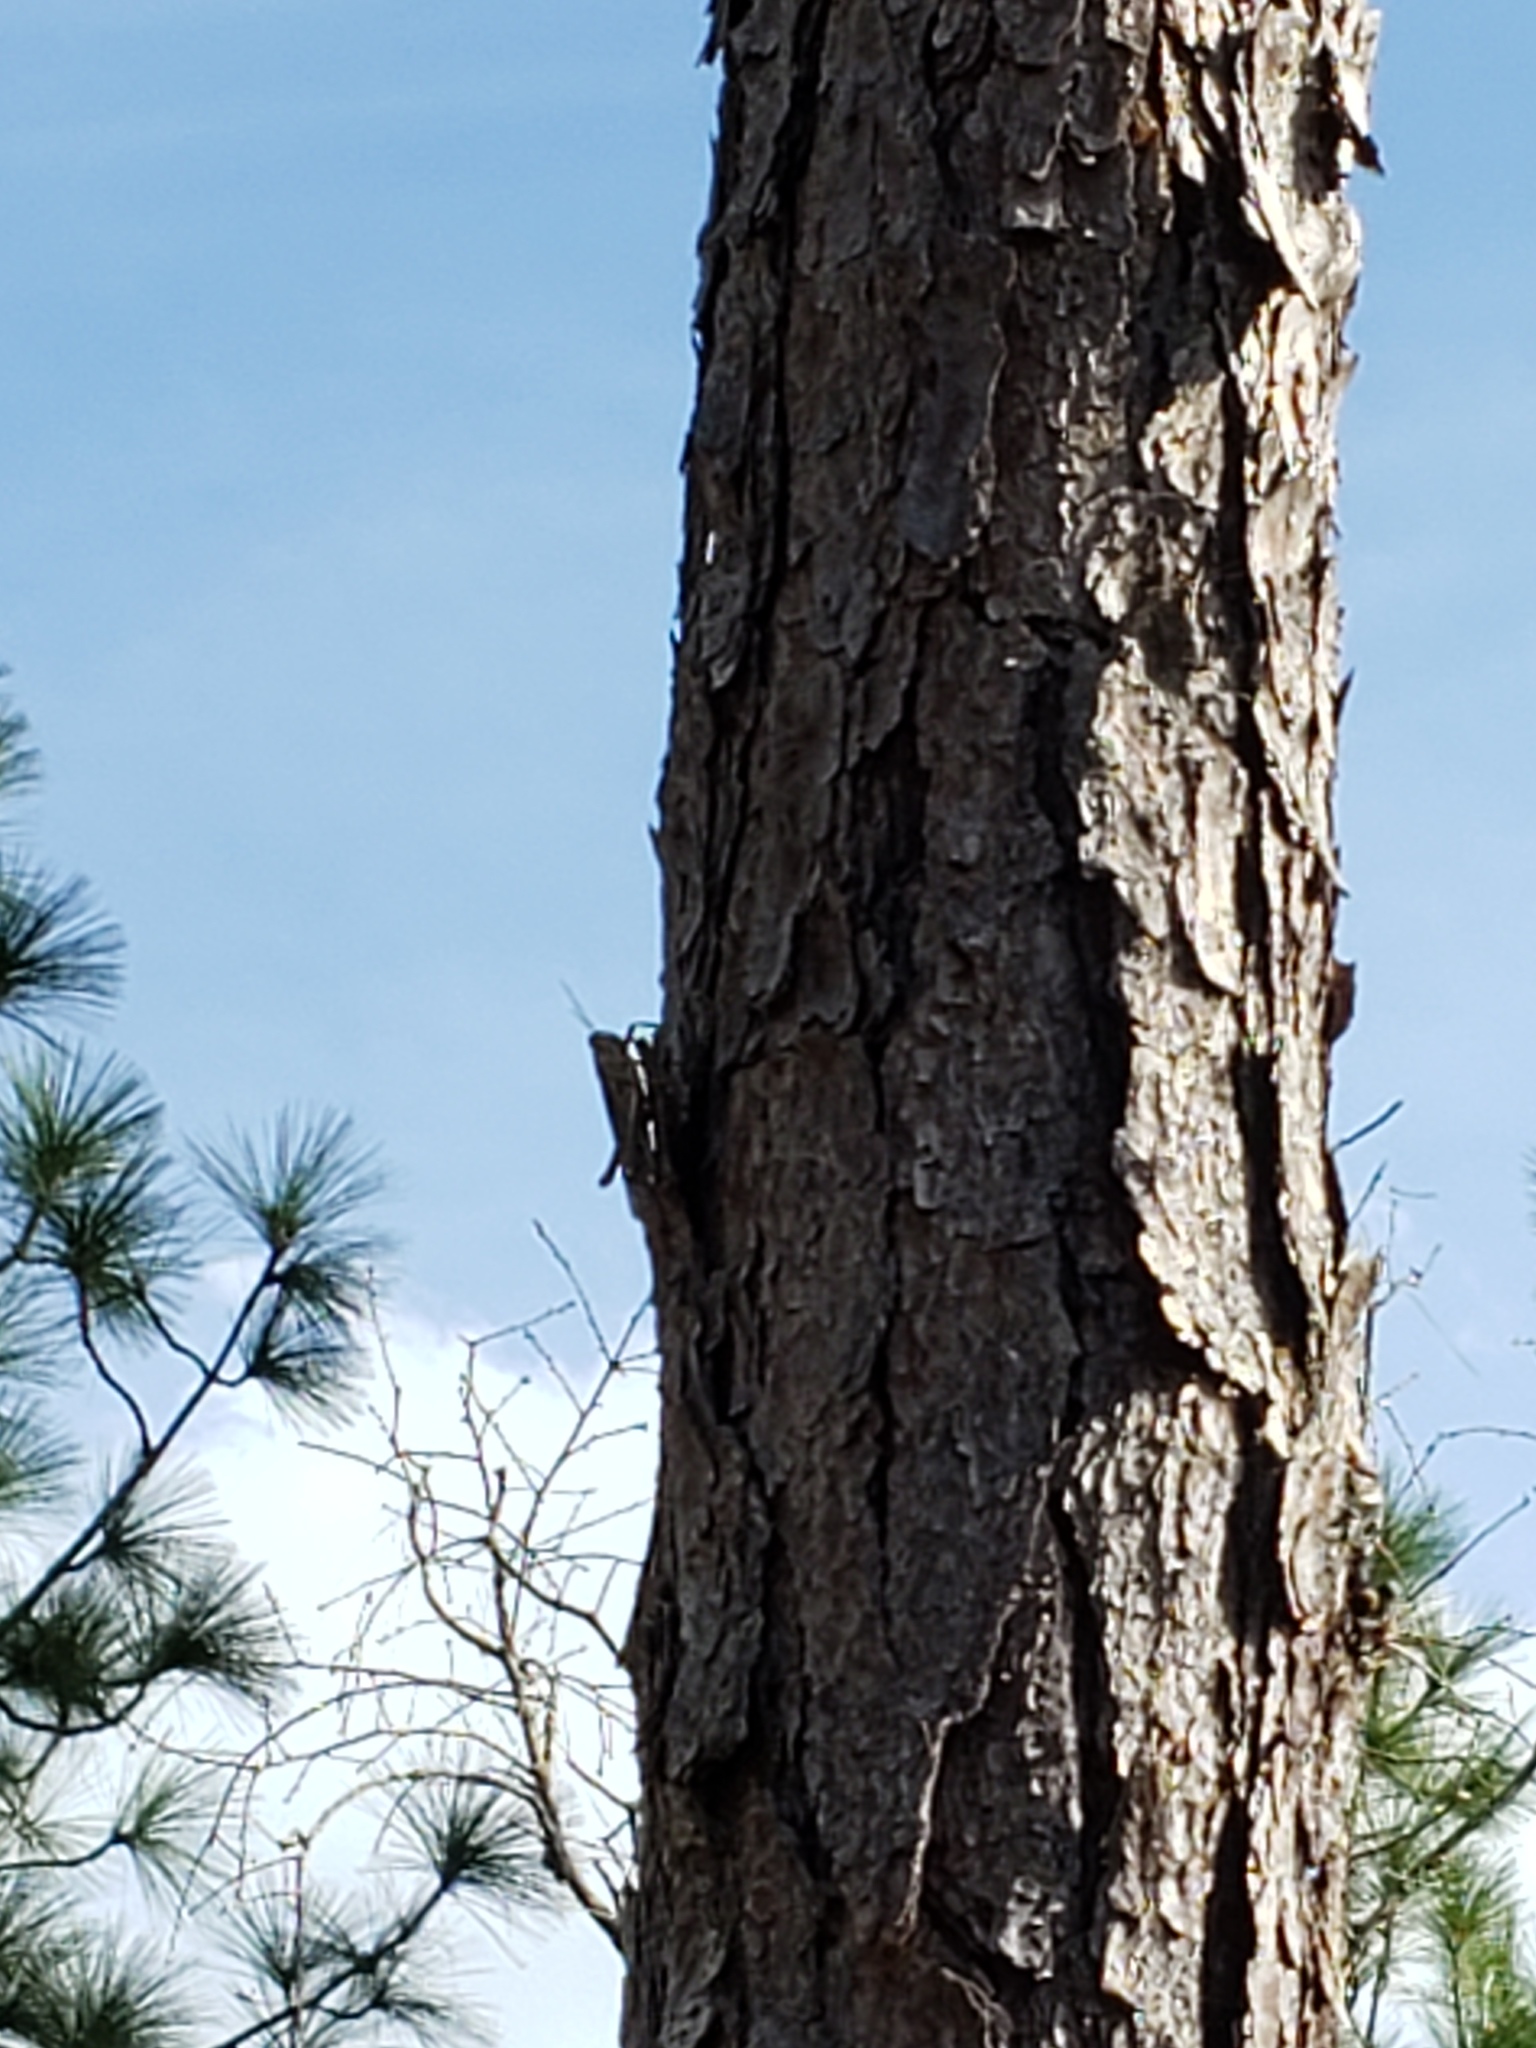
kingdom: Animalia
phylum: Arthropoda
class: Insecta
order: Orthoptera
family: Acrididae
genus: Schistocerca
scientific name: Schistocerca americana
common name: American bird locust
